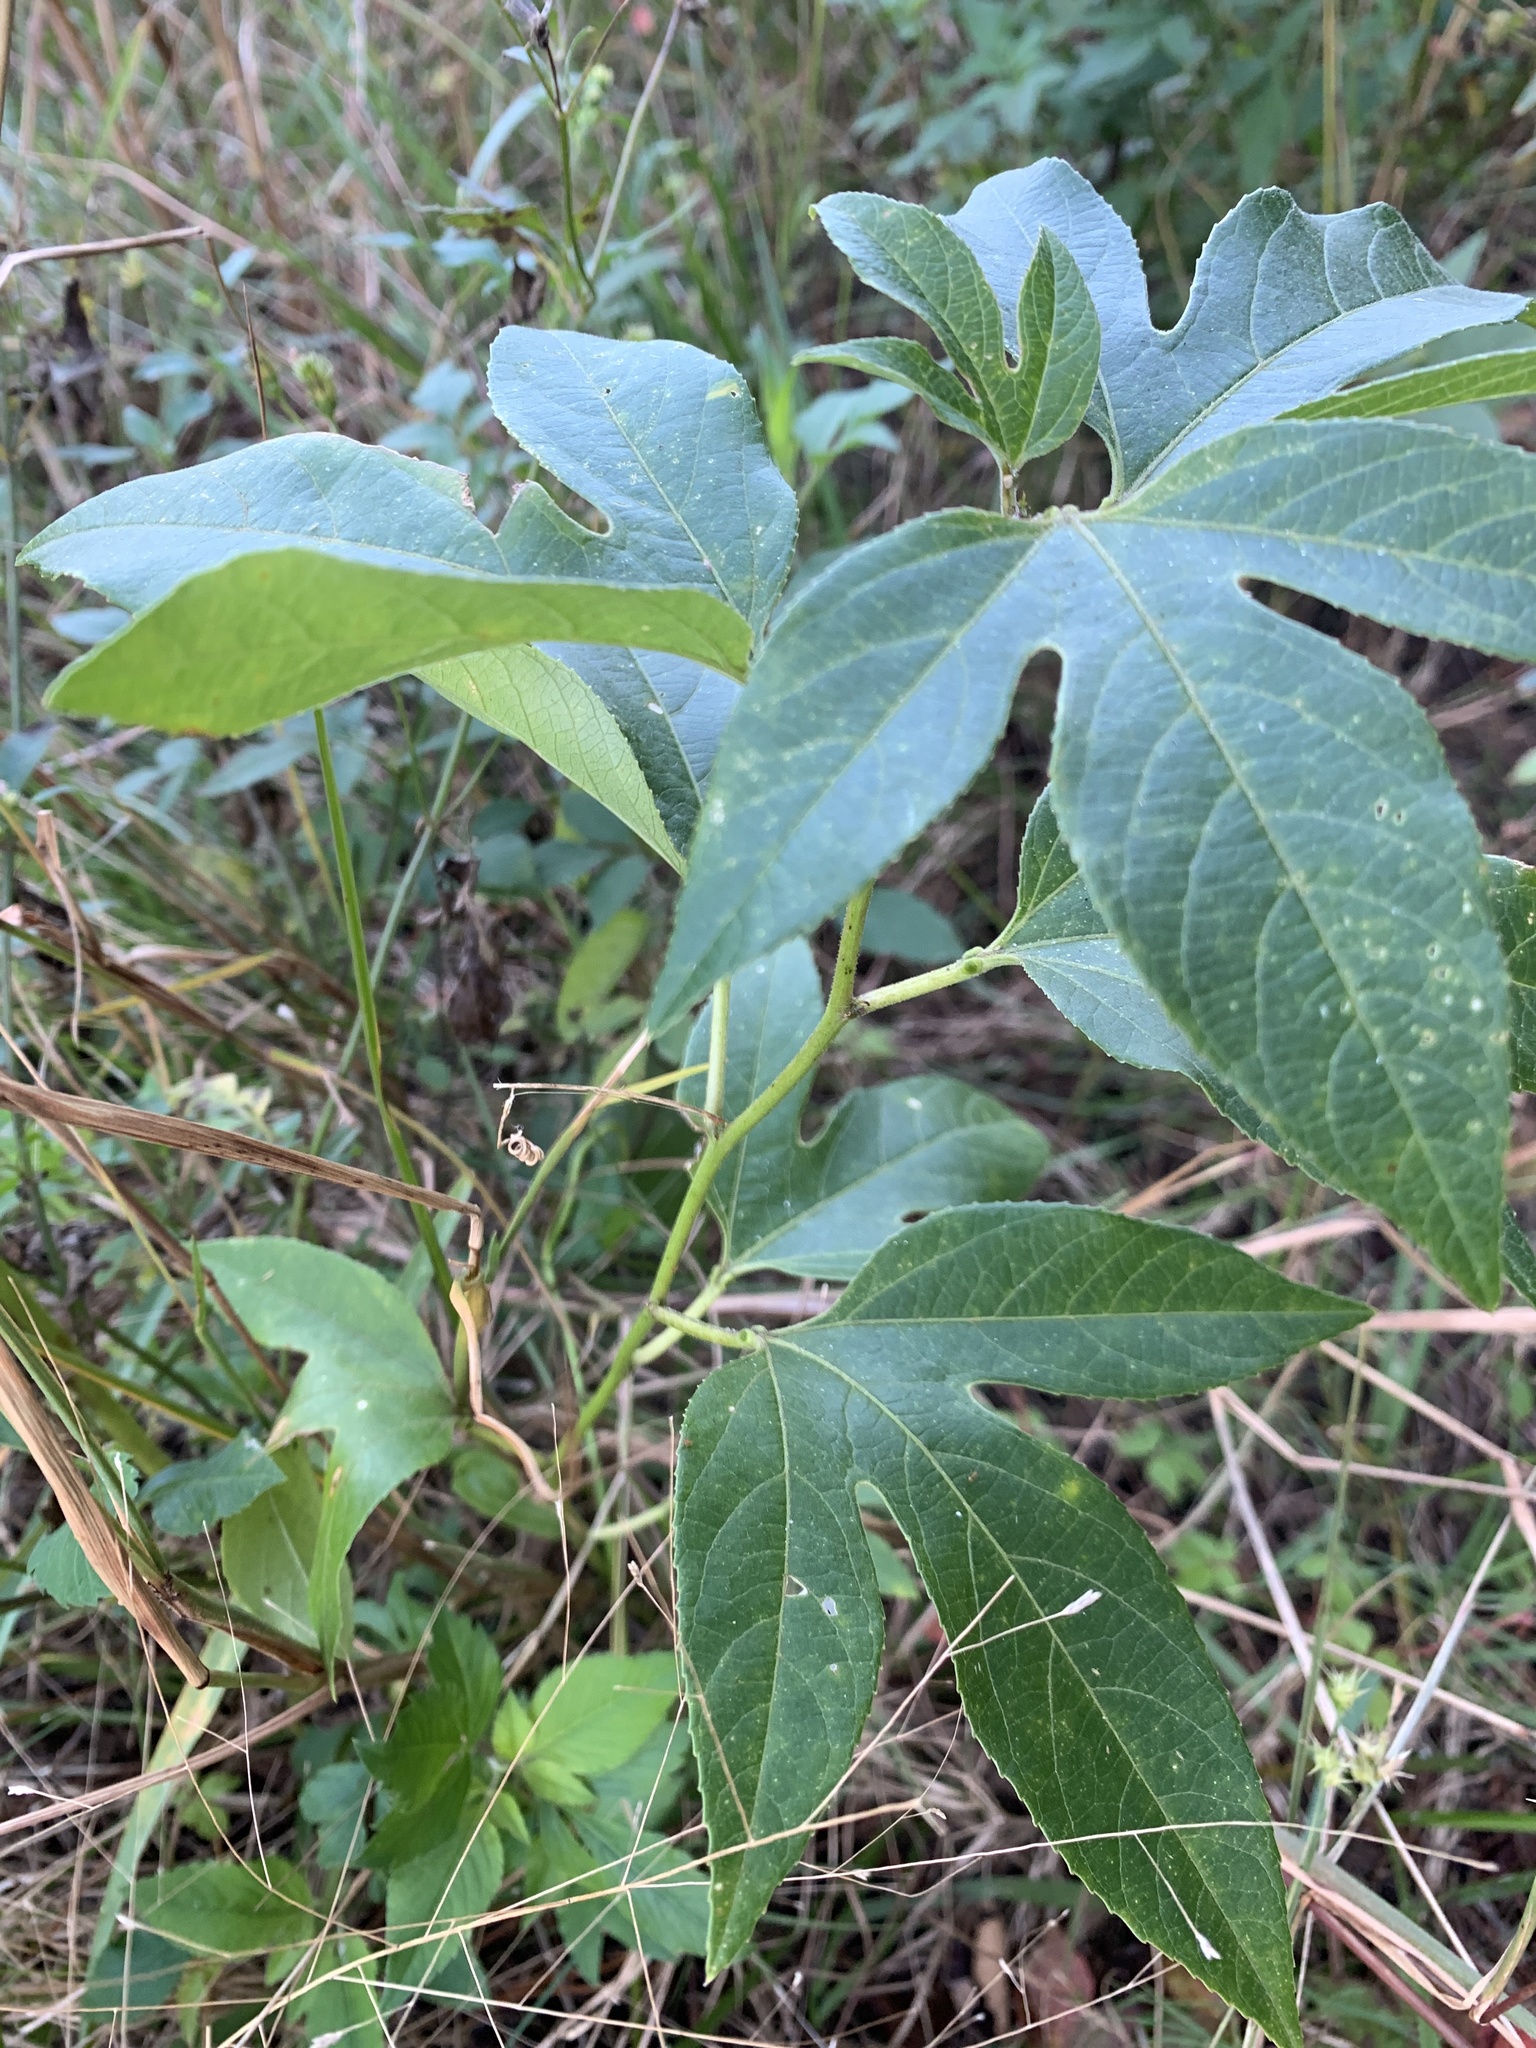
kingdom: Plantae
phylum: Tracheophyta
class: Magnoliopsida
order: Malpighiales
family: Passifloraceae
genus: Passiflora
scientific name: Passiflora incarnata
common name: Apricot-vine
